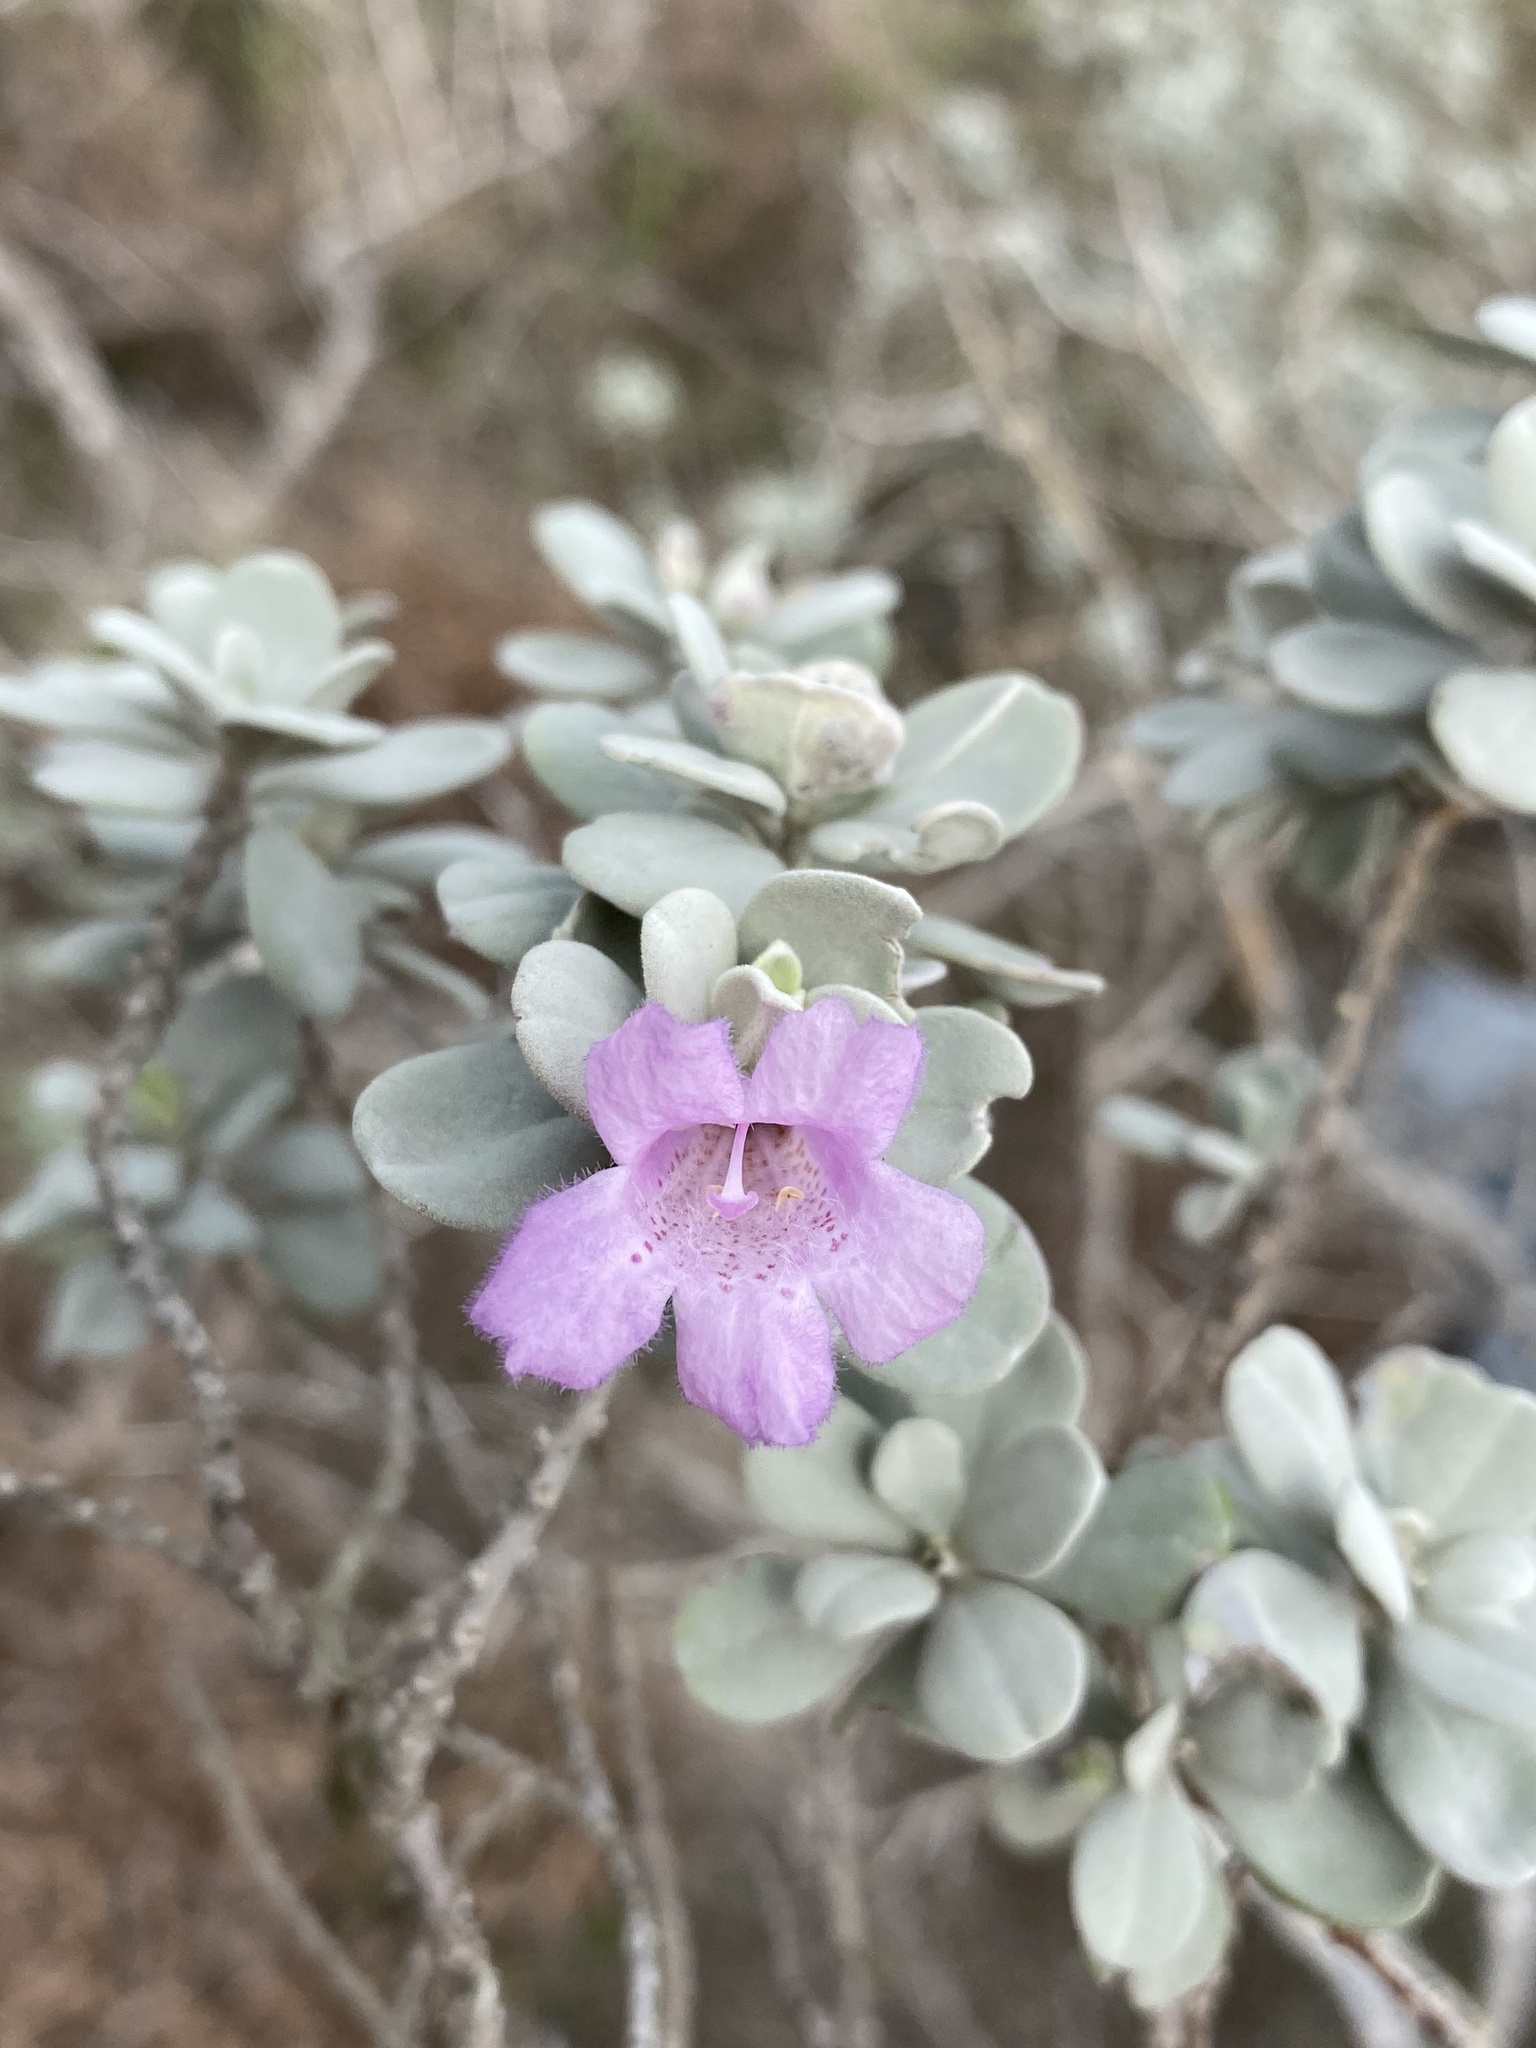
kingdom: Plantae
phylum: Tracheophyta
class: Magnoliopsida
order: Lamiales
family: Scrophulariaceae
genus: Leucophyllum
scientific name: Leucophyllum frutescens
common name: Texas silverleaf
